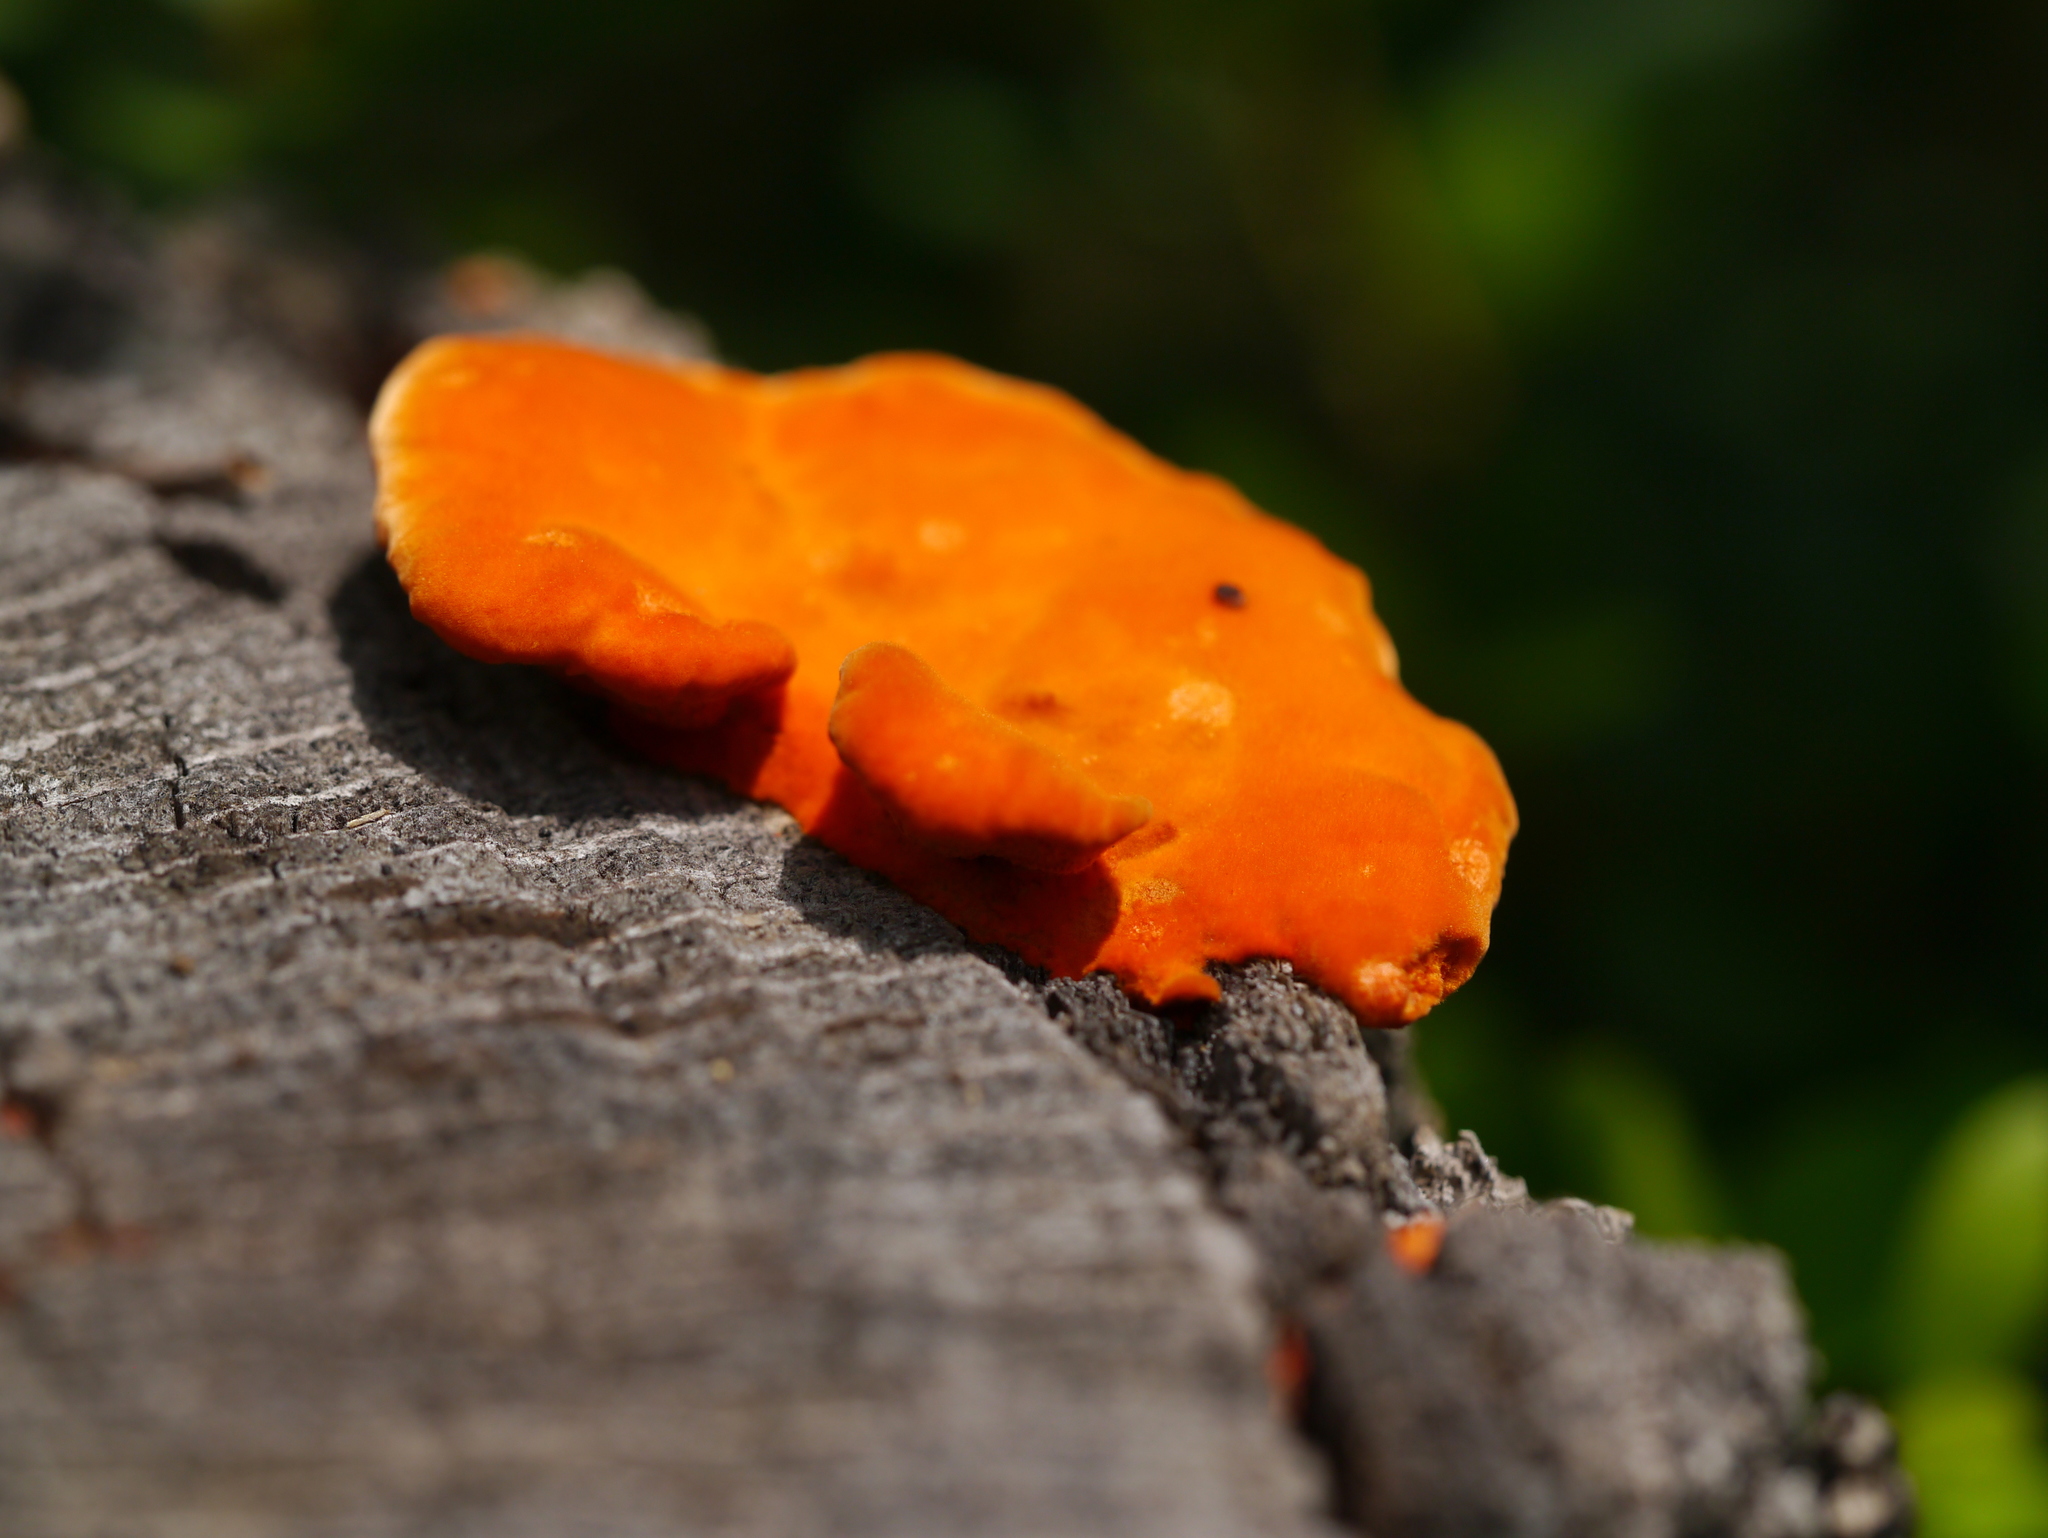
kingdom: Fungi
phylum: Basidiomycota
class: Agaricomycetes
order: Polyporales
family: Polyporaceae
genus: Trametes
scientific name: Trametes cinnabarina
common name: Northern cinnabar polypore
